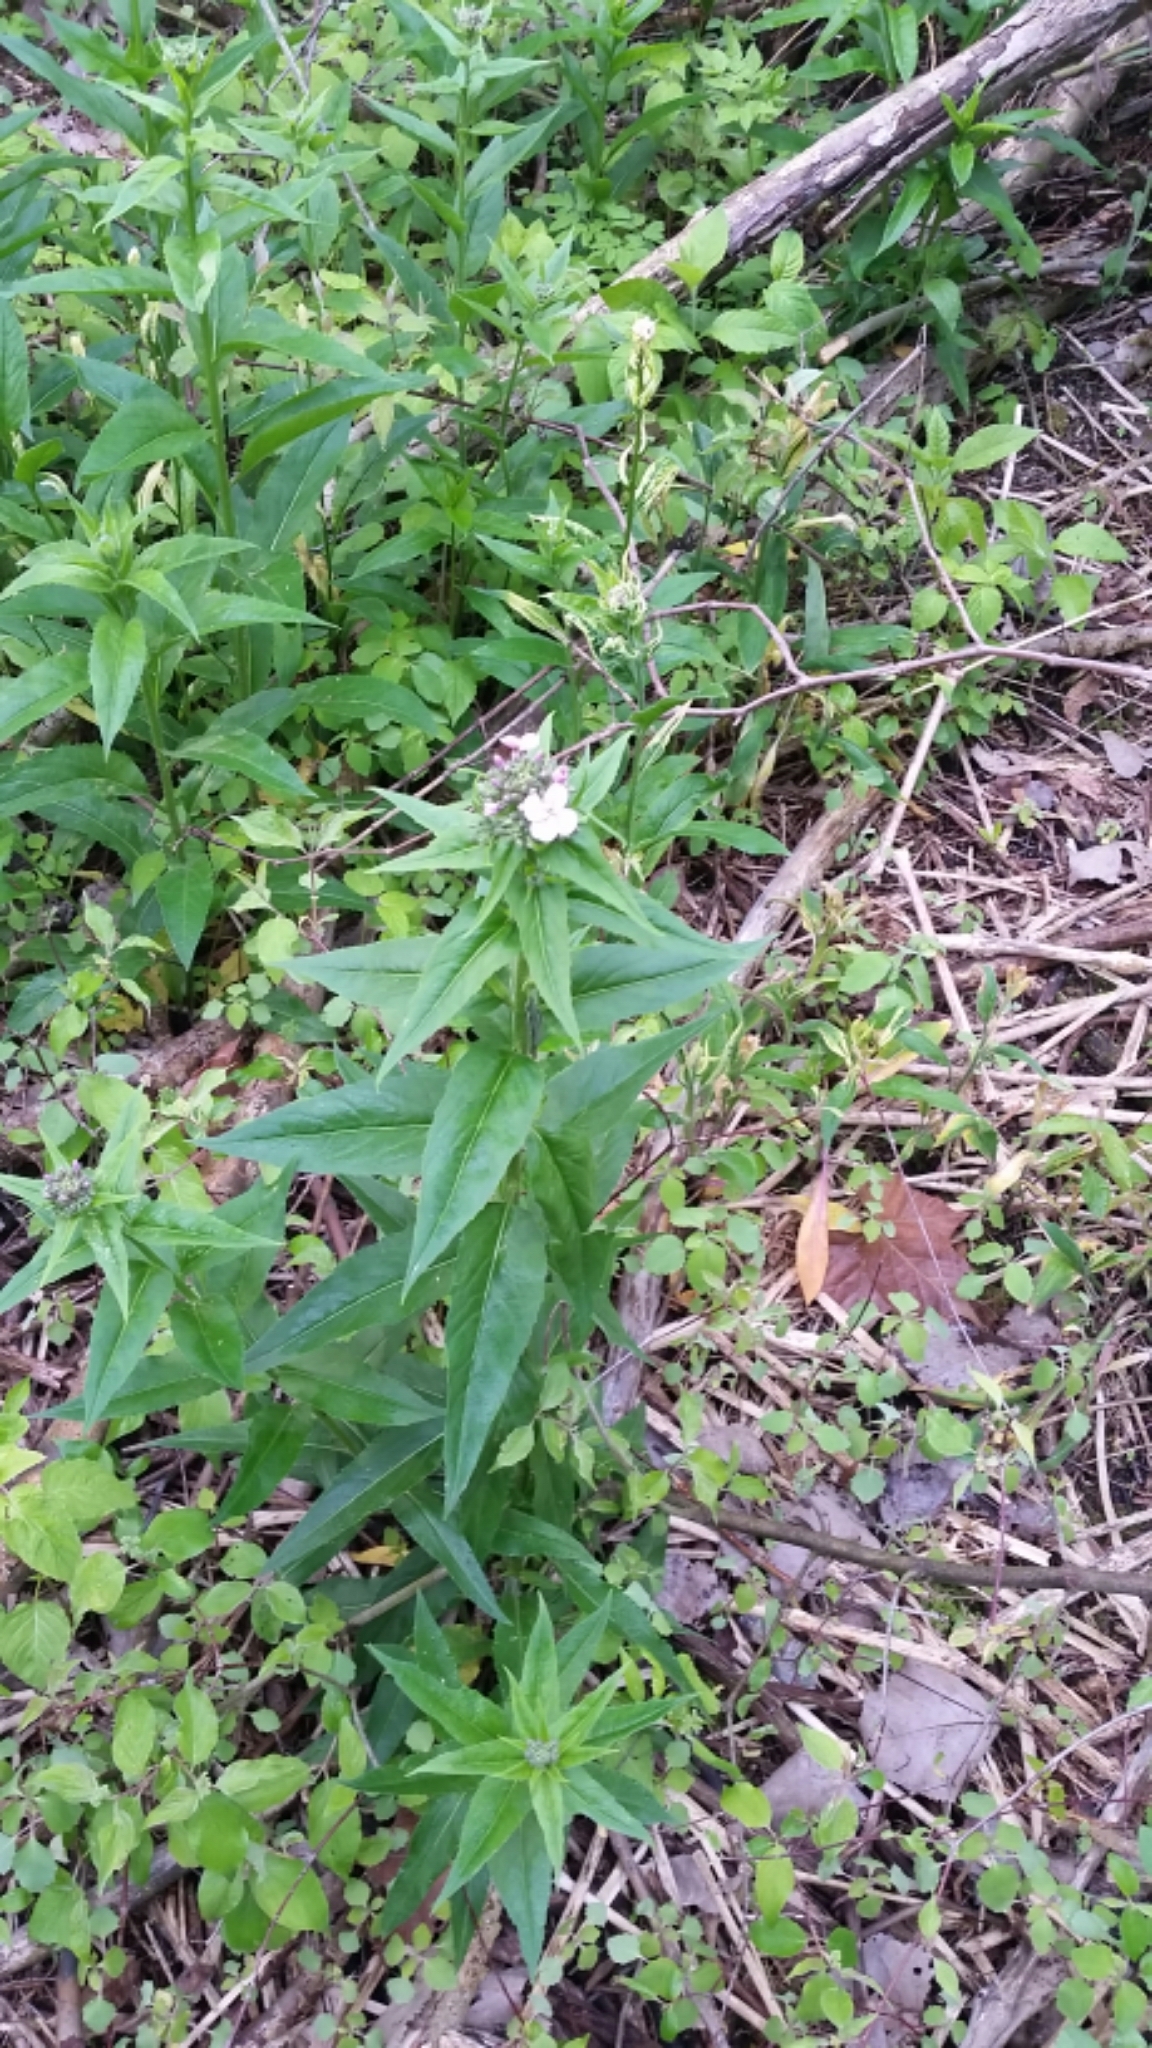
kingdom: Plantae
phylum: Tracheophyta
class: Magnoliopsida
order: Brassicales
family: Brassicaceae
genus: Hesperis
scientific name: Hesperis matronalis
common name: Dame's-violet
